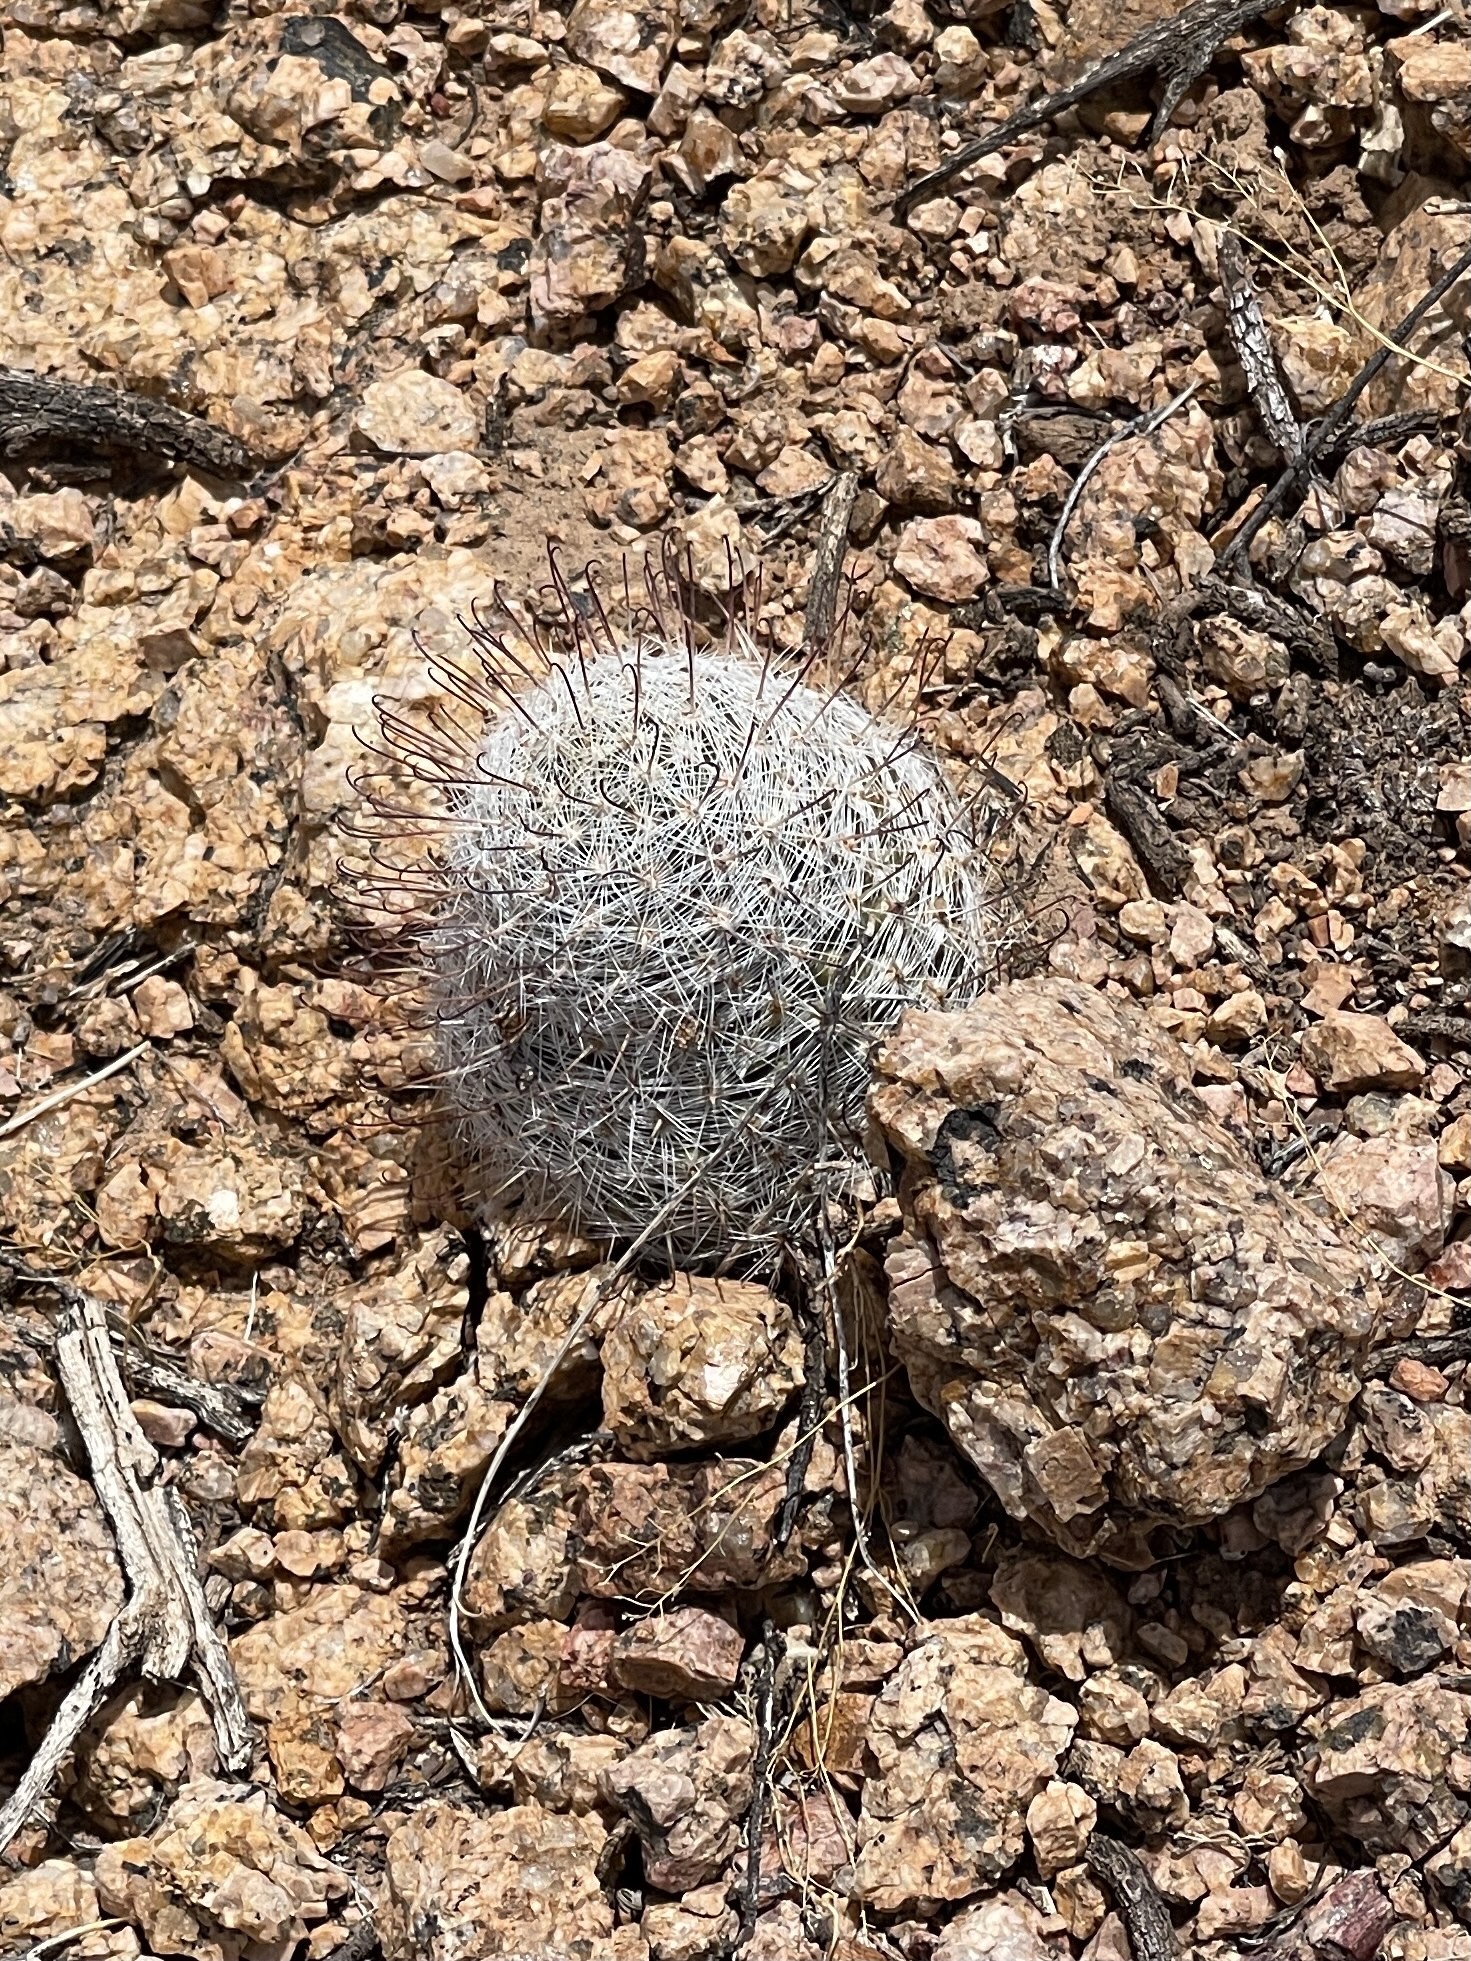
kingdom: Plantae
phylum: Tracheophyta
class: Magnoliopsida
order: Caryophyllales
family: Cactaceae
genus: Cochemiea
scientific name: Cochemiea grahamii
